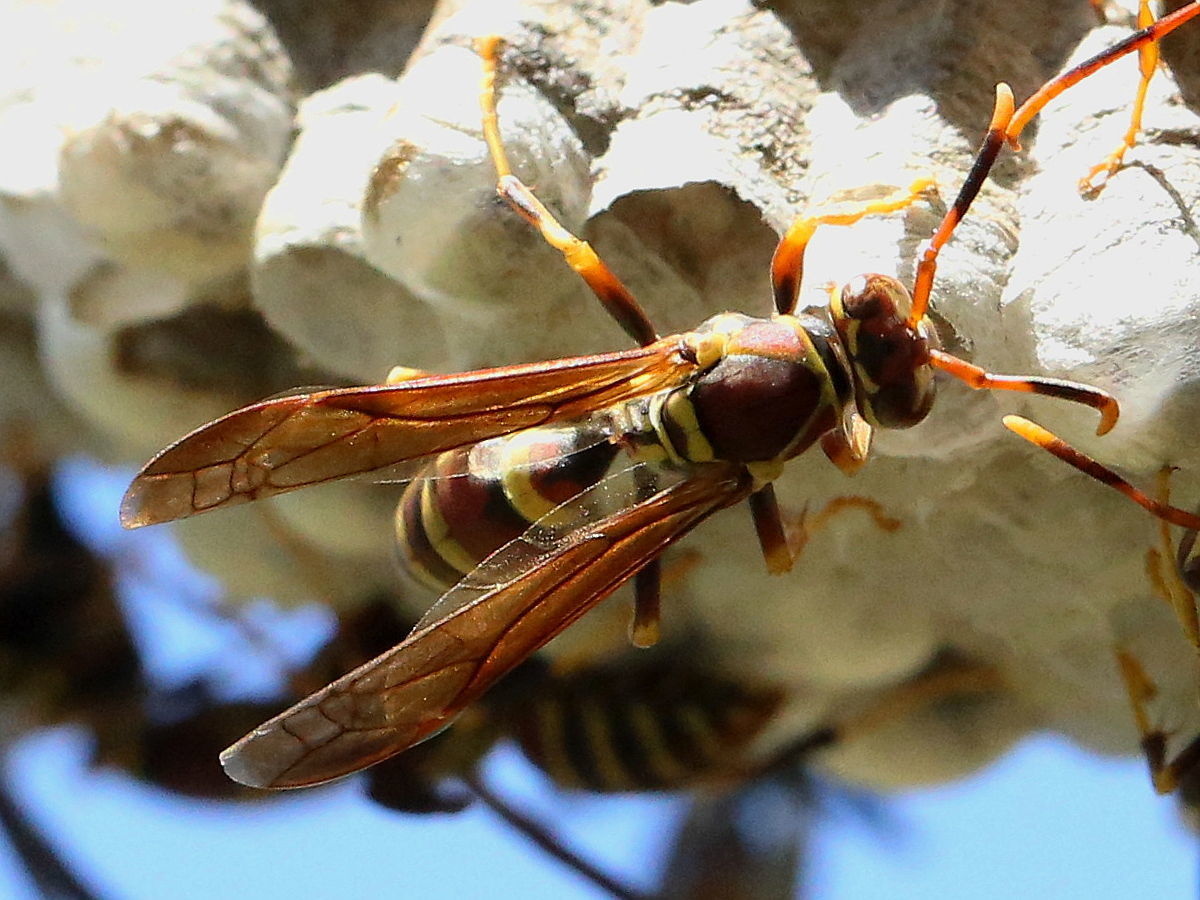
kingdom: Animalia
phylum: Arthropoda
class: Insecta
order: Hymenoptera
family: Eumenidae
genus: Polistes
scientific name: Polistes exclamans
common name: Paper wasp
